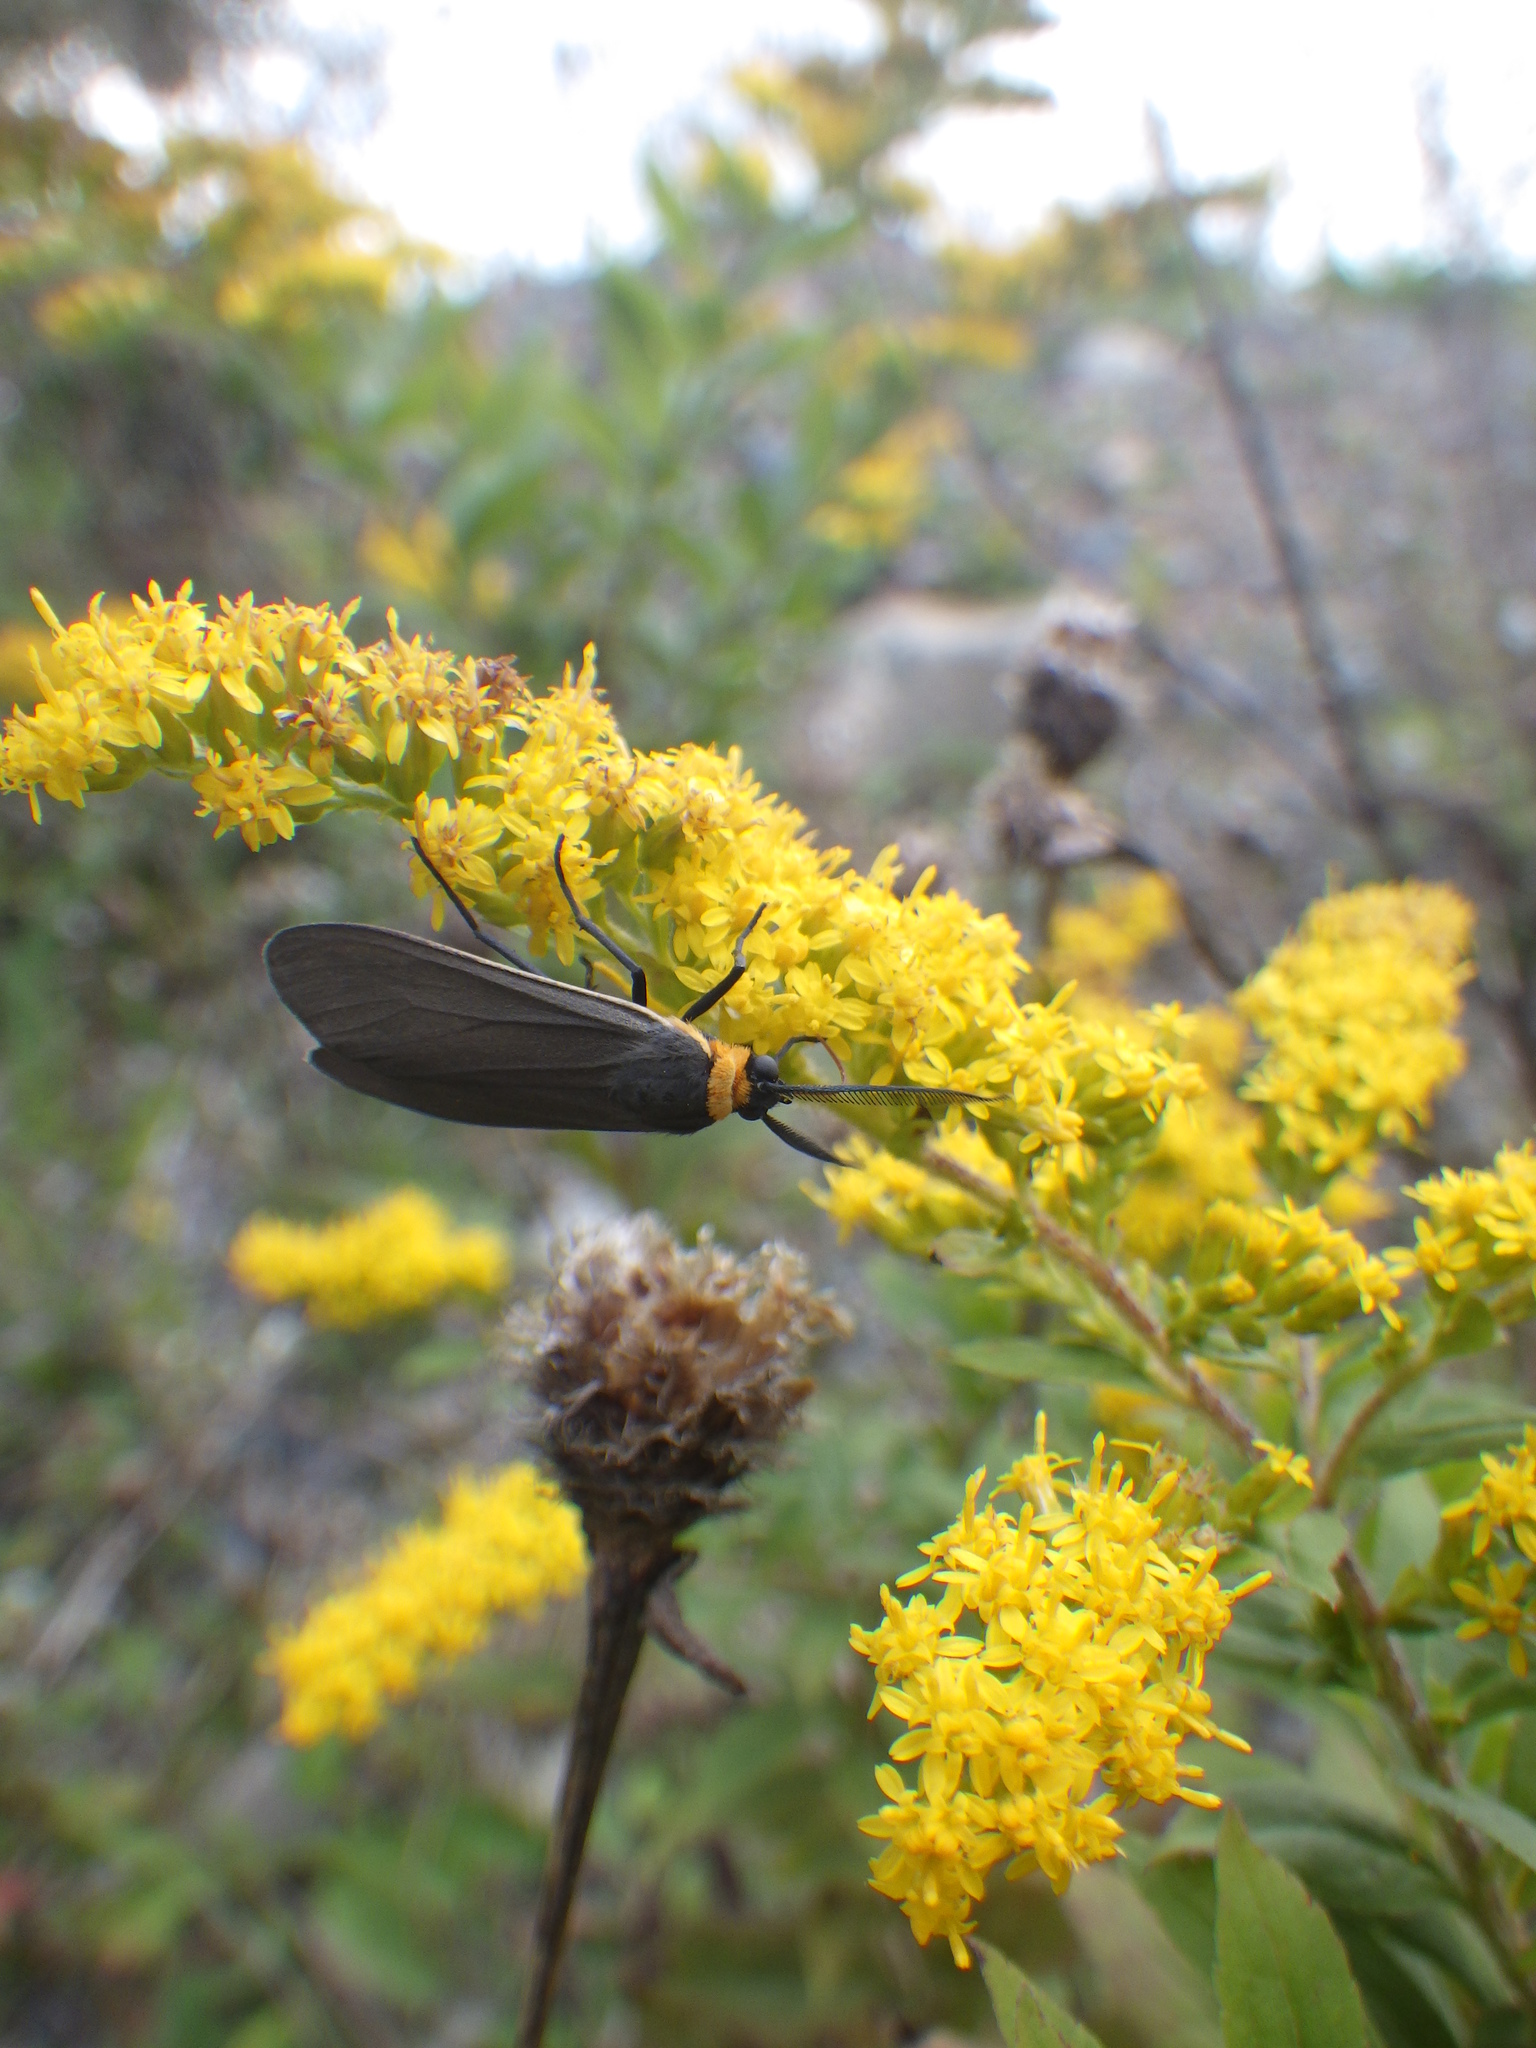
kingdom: Animalia
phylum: Arthropoda
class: Insecta
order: Lepidoptera
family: Erebidae
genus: Cisseps
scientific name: Cisseps fulvicollis
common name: Yellow-collared scape moth
